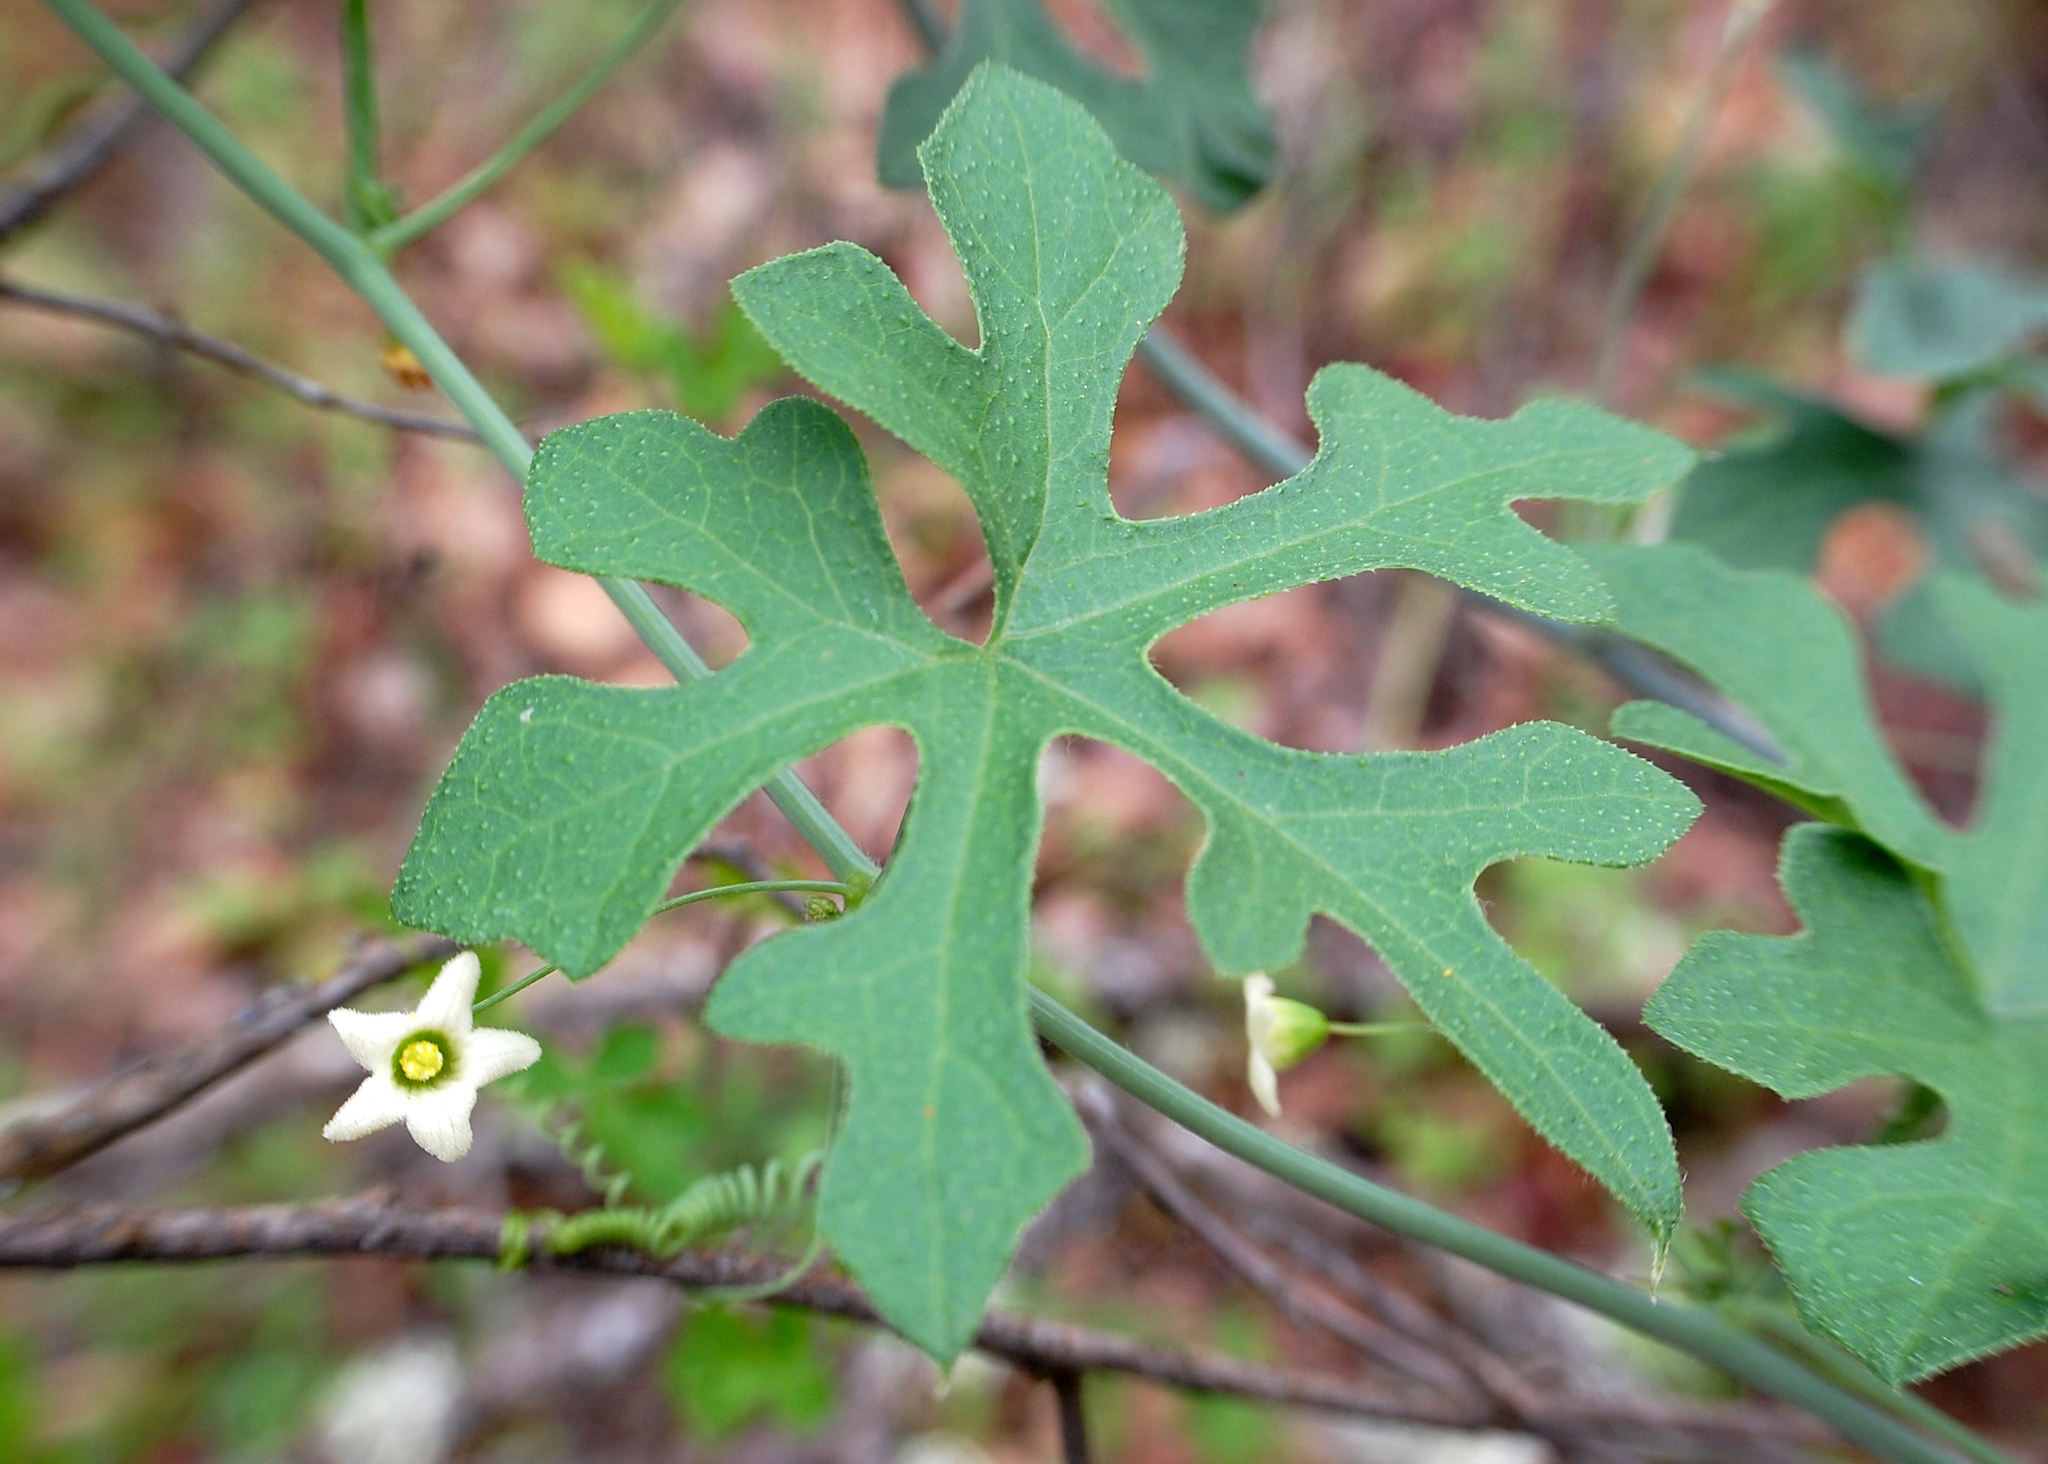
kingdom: Plantae
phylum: Tracheophyta
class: Magnoliopsida
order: Cucurbitales
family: Cucurbitaceae
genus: Marah
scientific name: Marah watsonii
